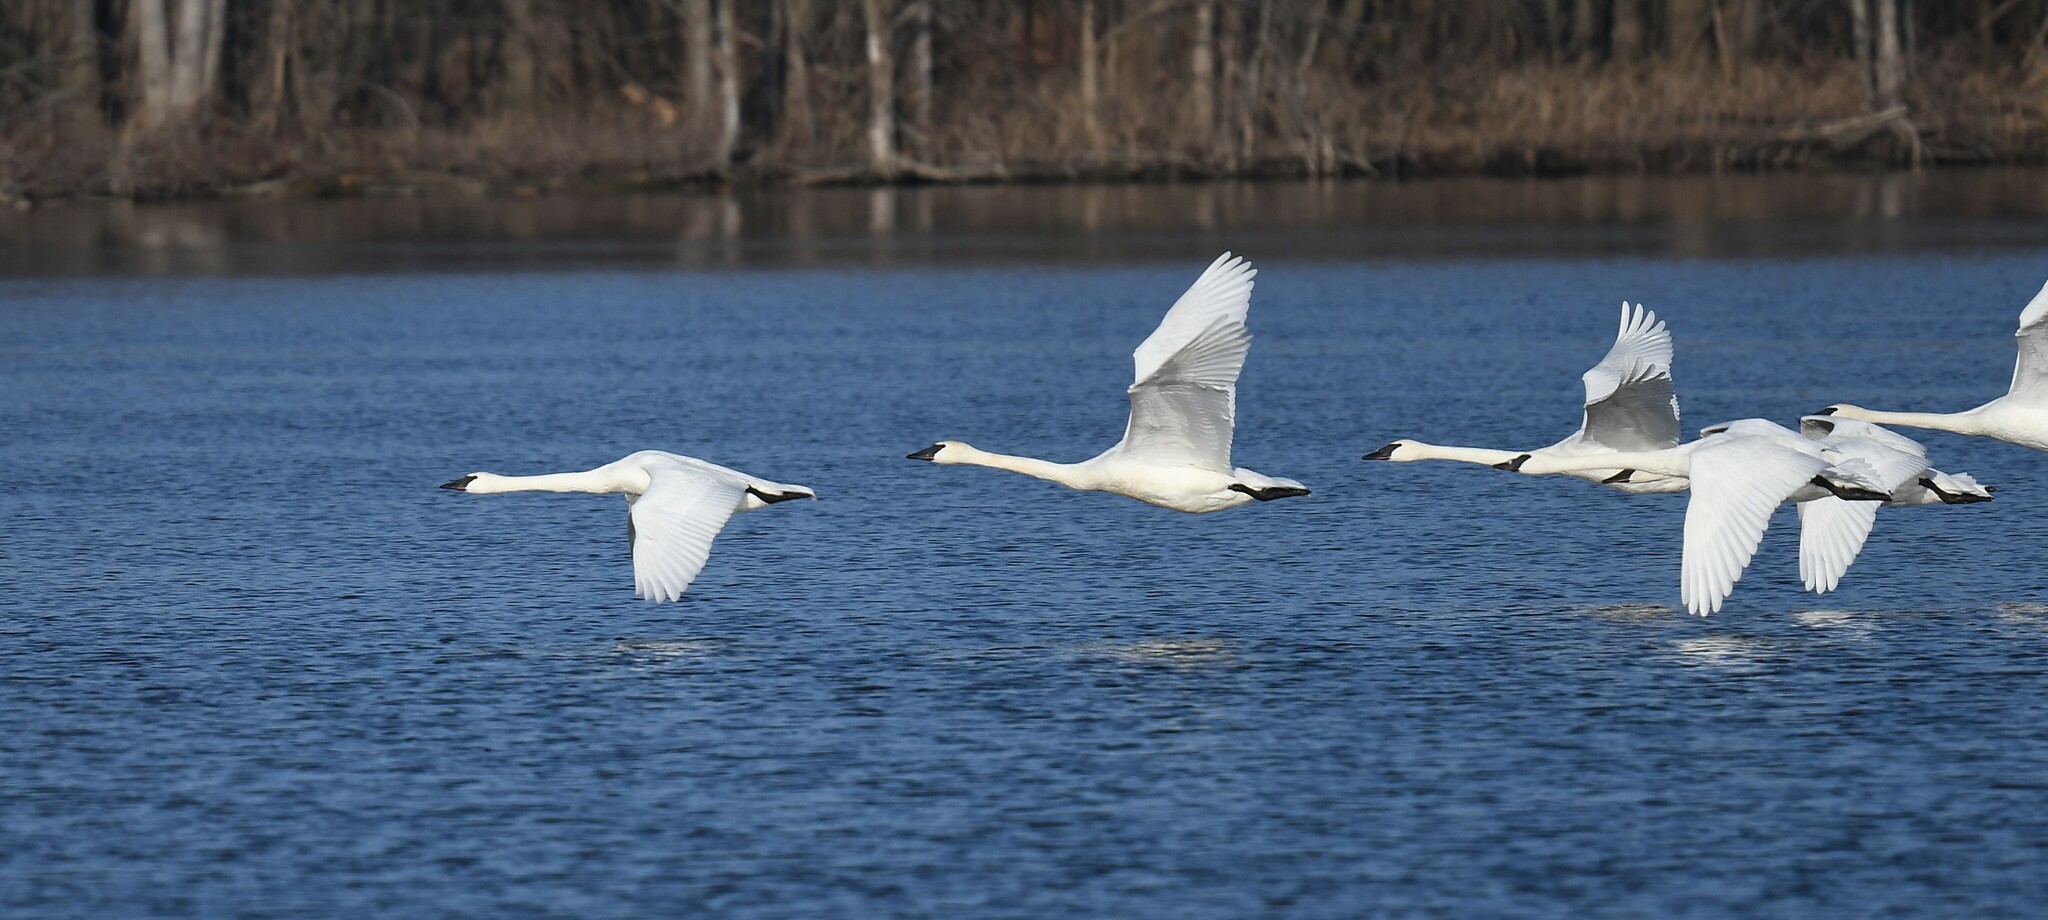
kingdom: Animalia
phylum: Chordata
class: Aves
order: Anseriformes
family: Anatidae
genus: Cygnus
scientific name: Cygnus buccinator
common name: Trumpeter swan
